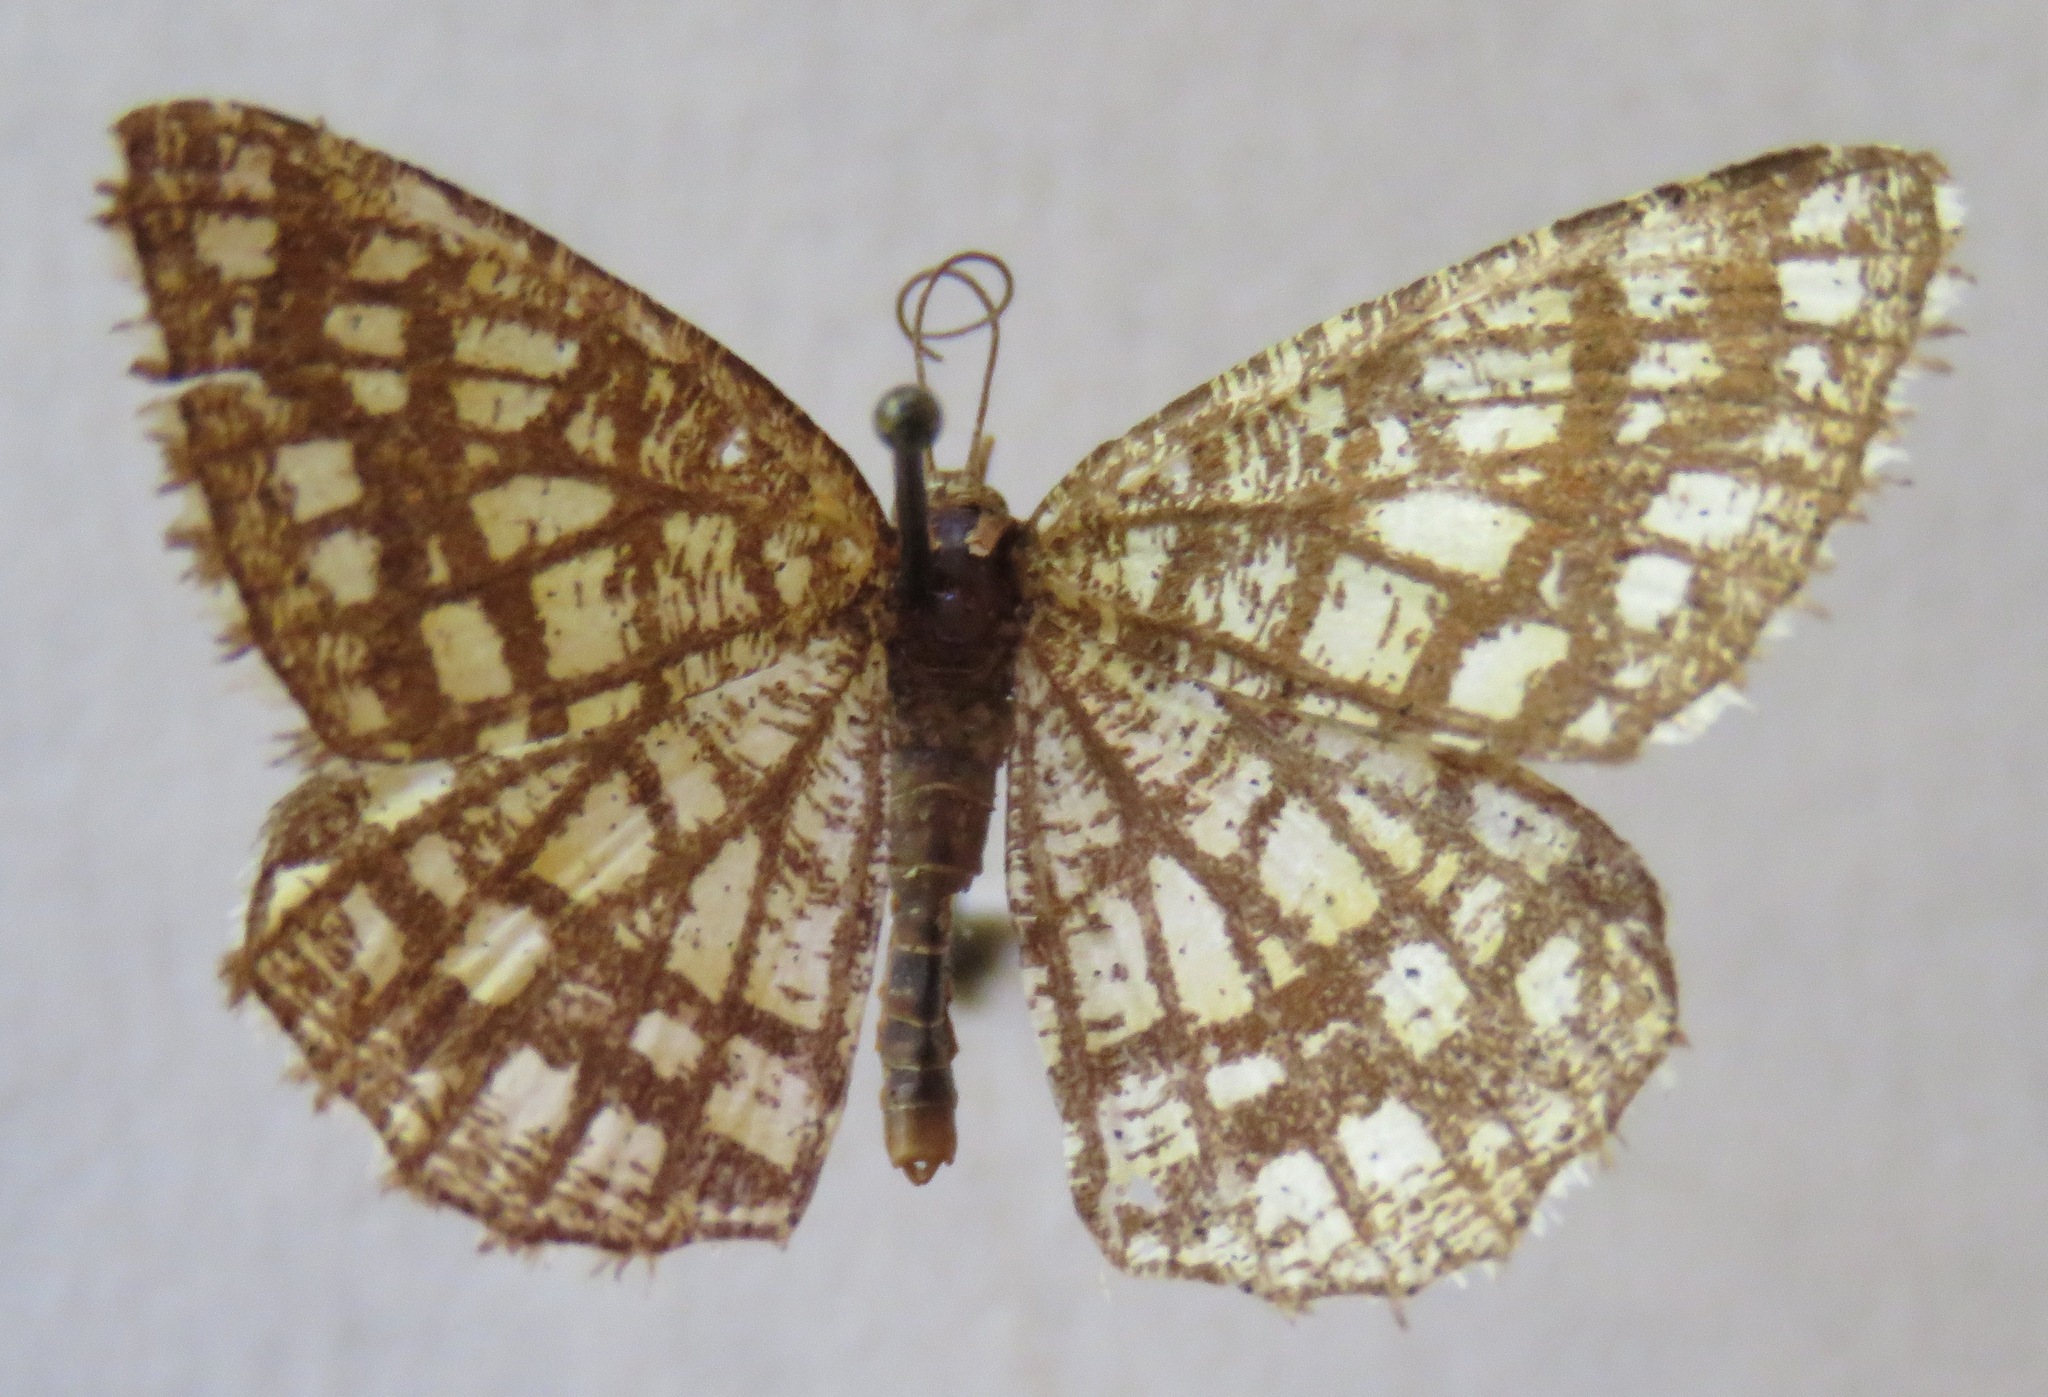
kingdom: Animalia
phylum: Arthropoda
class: Insecta
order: Lepidoptera
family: Geometridae
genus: Chiasmia
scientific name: Chiasmia clathrata
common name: Latticed heath
